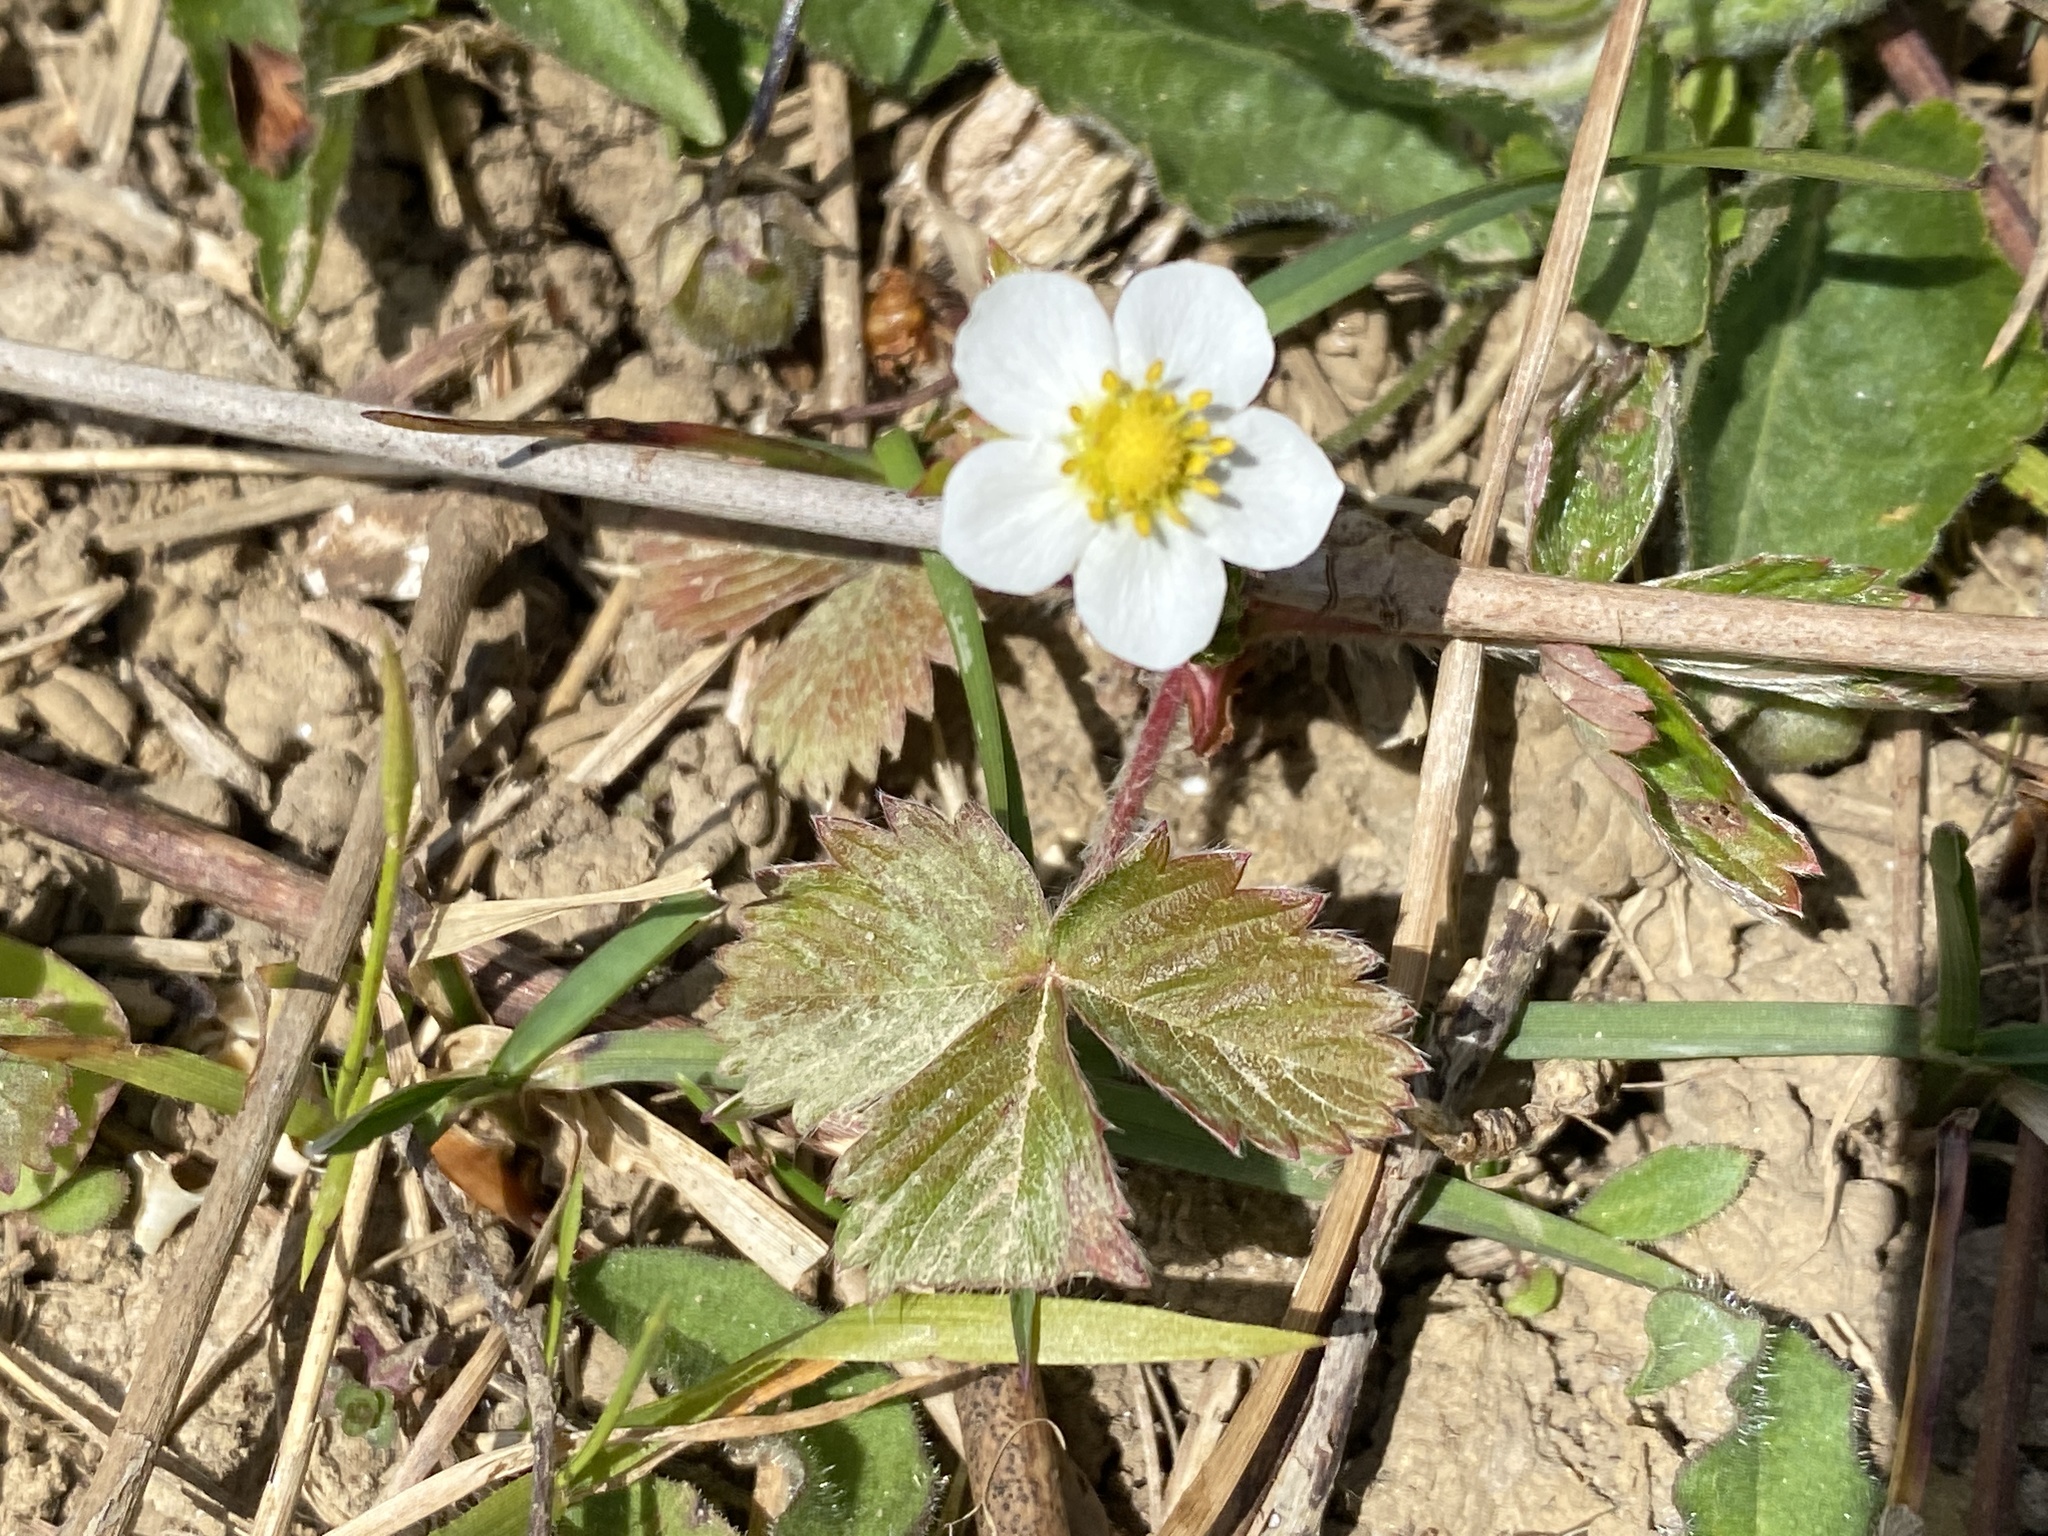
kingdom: Plantae
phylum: Tracheophyta
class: Magnoliopsida
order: Rosales
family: Rosaceae
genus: Fragaria
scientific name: Fragaria vesca
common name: Wild strawberry
